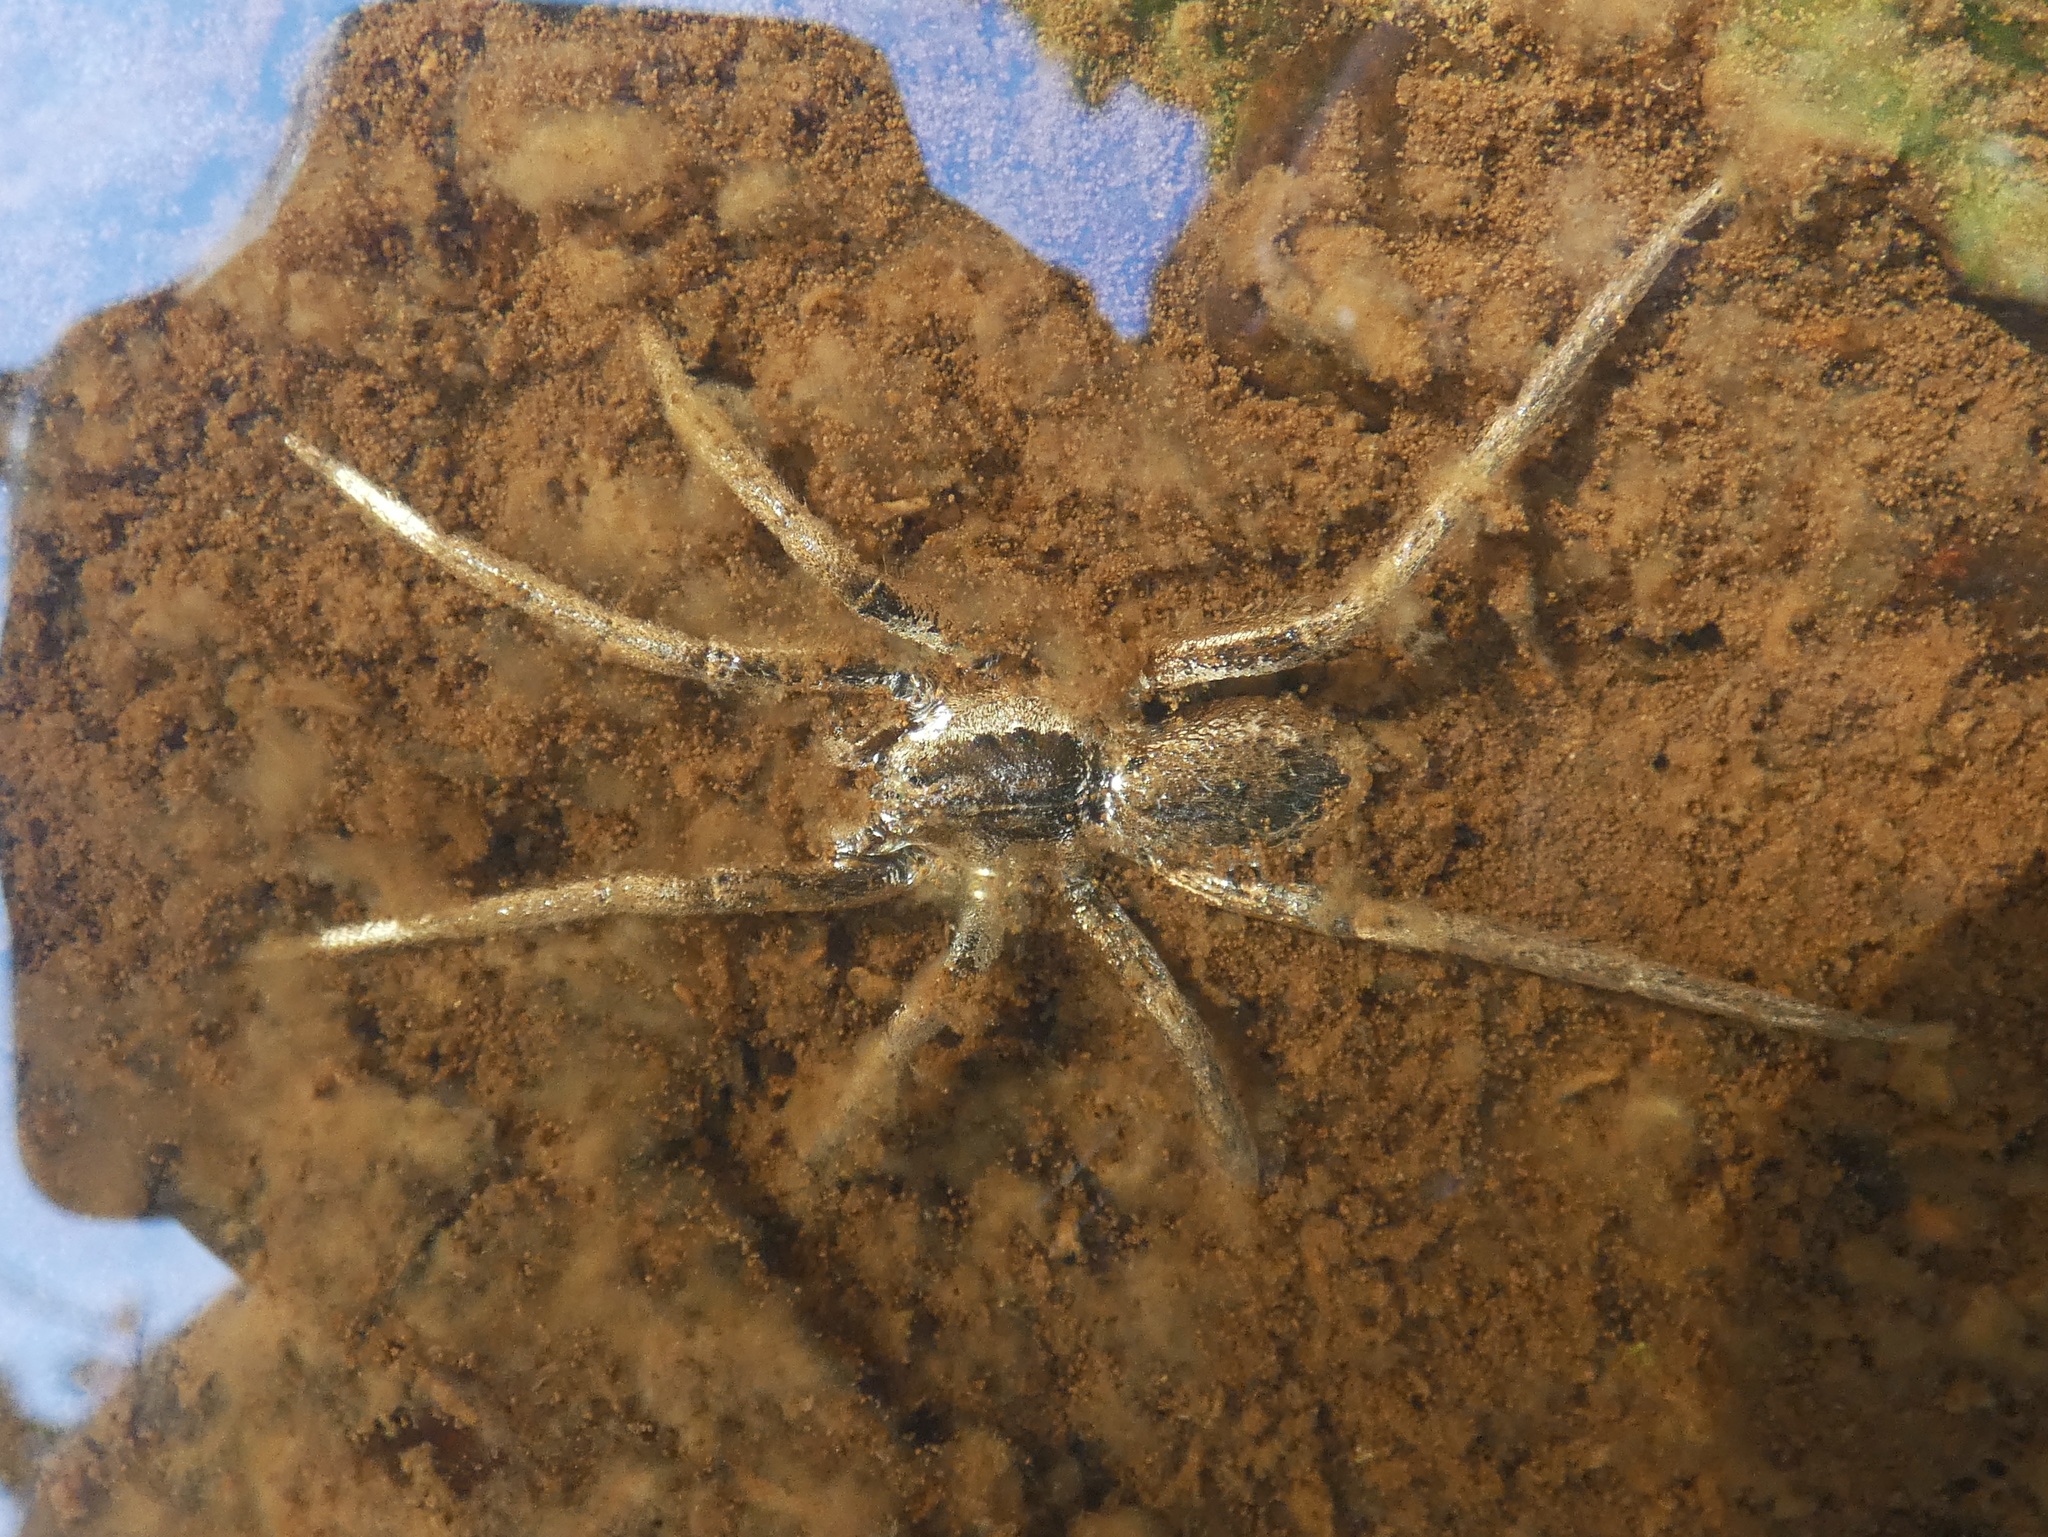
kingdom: Animalia
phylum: Arthropoda
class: Arachnida
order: Araneae
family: Ctenidae
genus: Ancylometes
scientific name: Ancylometes bogotensis
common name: Wandering spiders
